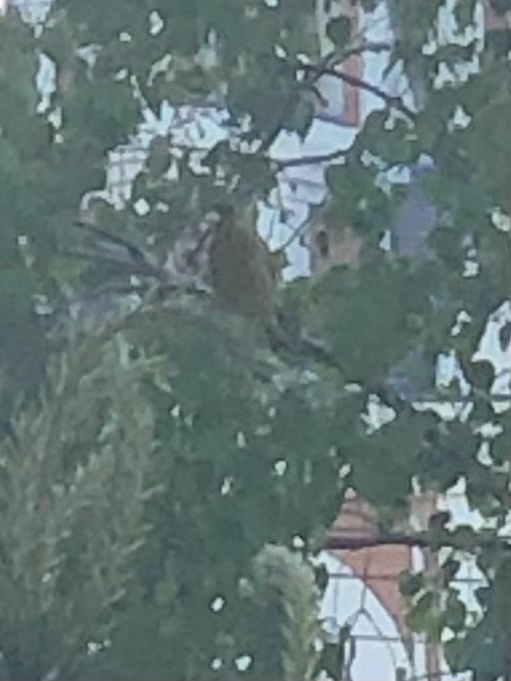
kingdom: Plantae
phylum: Tracheophyta
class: Liliopsida
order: Poales
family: Poaceae
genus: Chloris
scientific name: Chloris sinica
